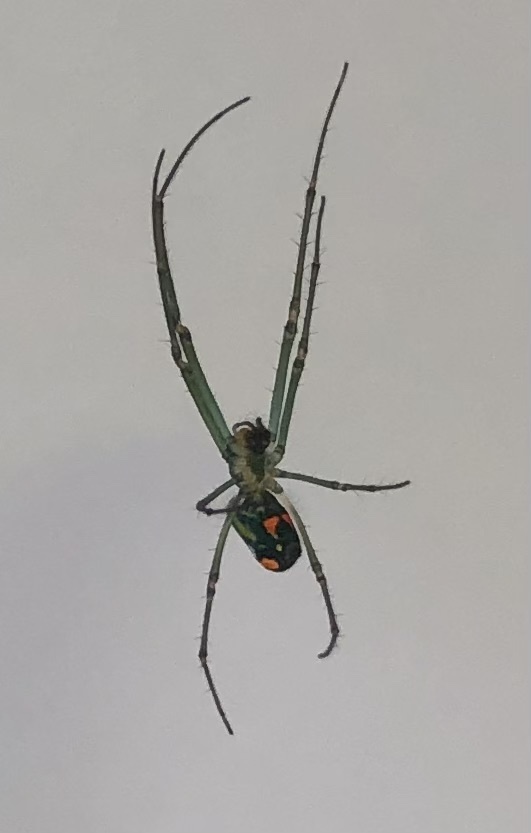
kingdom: Animalia
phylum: Arthropoda
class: Arachnida
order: Araneae
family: Tetragnathidae
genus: Leucauge
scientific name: Leucauge argyrobapta
